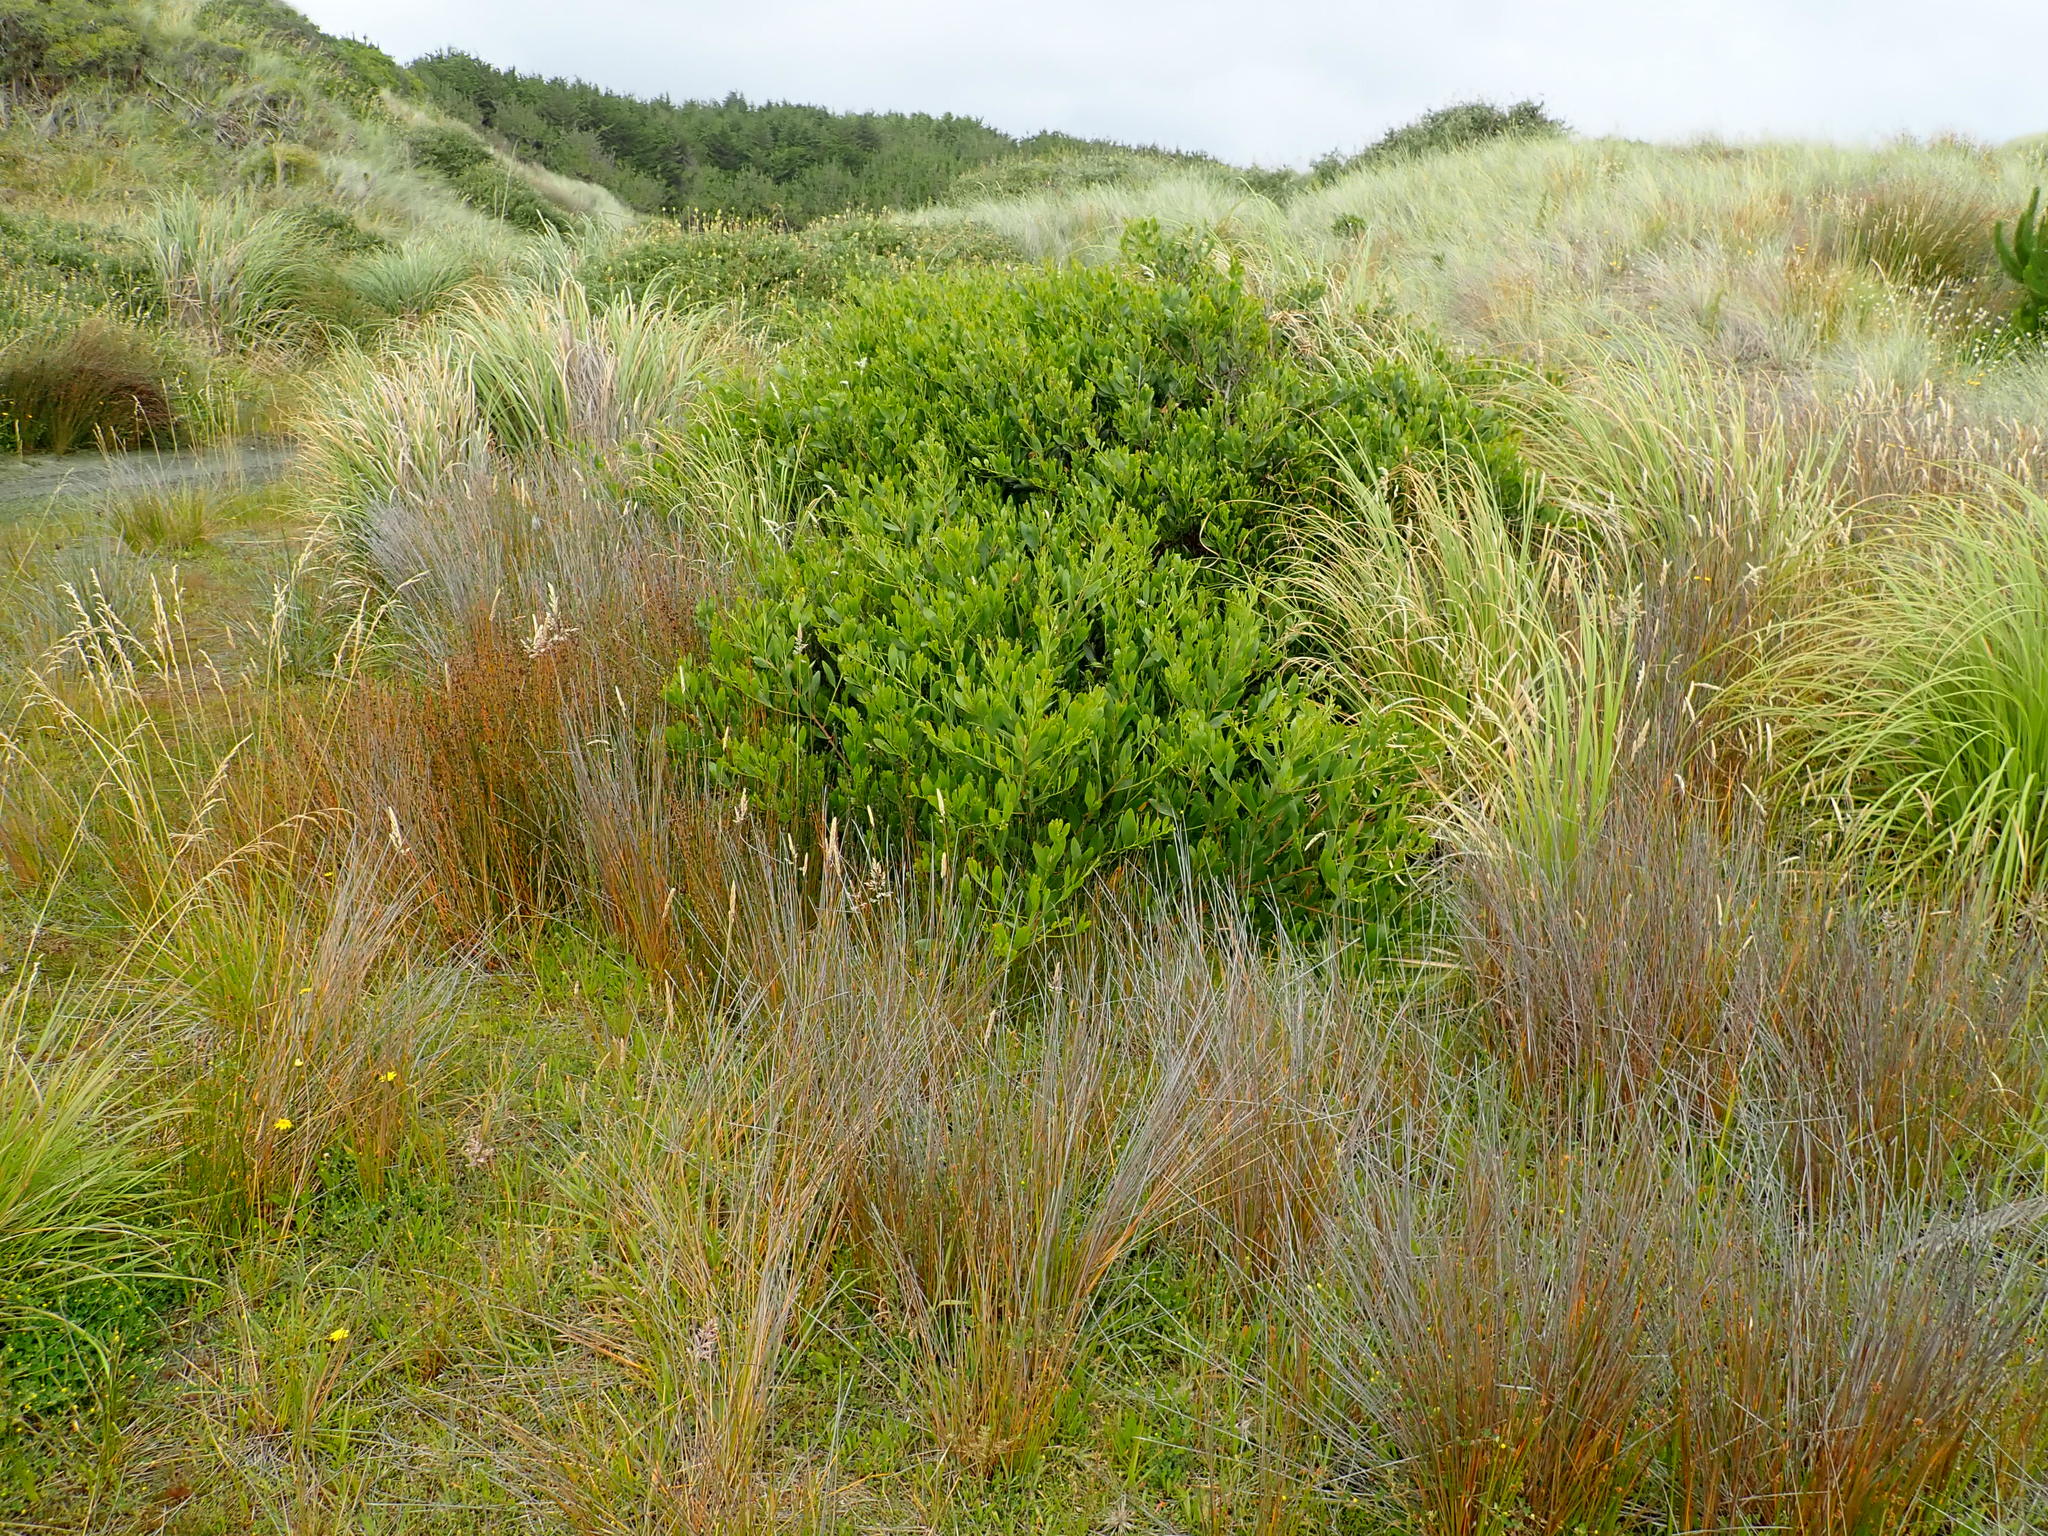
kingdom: Plantae
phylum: Tracheophyta
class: Magnoliopsida
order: Fabales
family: Fabaceae
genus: Acacia
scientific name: Acacia longifolia
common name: Sydney golden wattle
